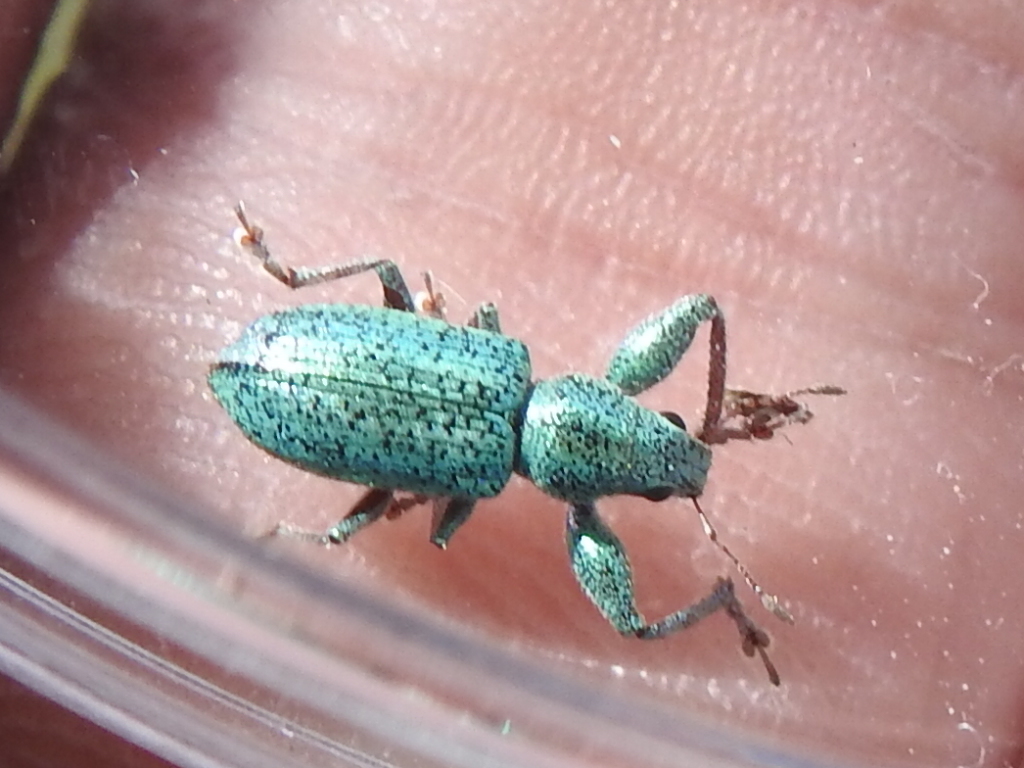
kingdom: Animalia
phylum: Arthropoda
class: Insecta
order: Coleoptera
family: Curculionidae
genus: Hadromeropsis
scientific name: Hadromeropsis opalina
